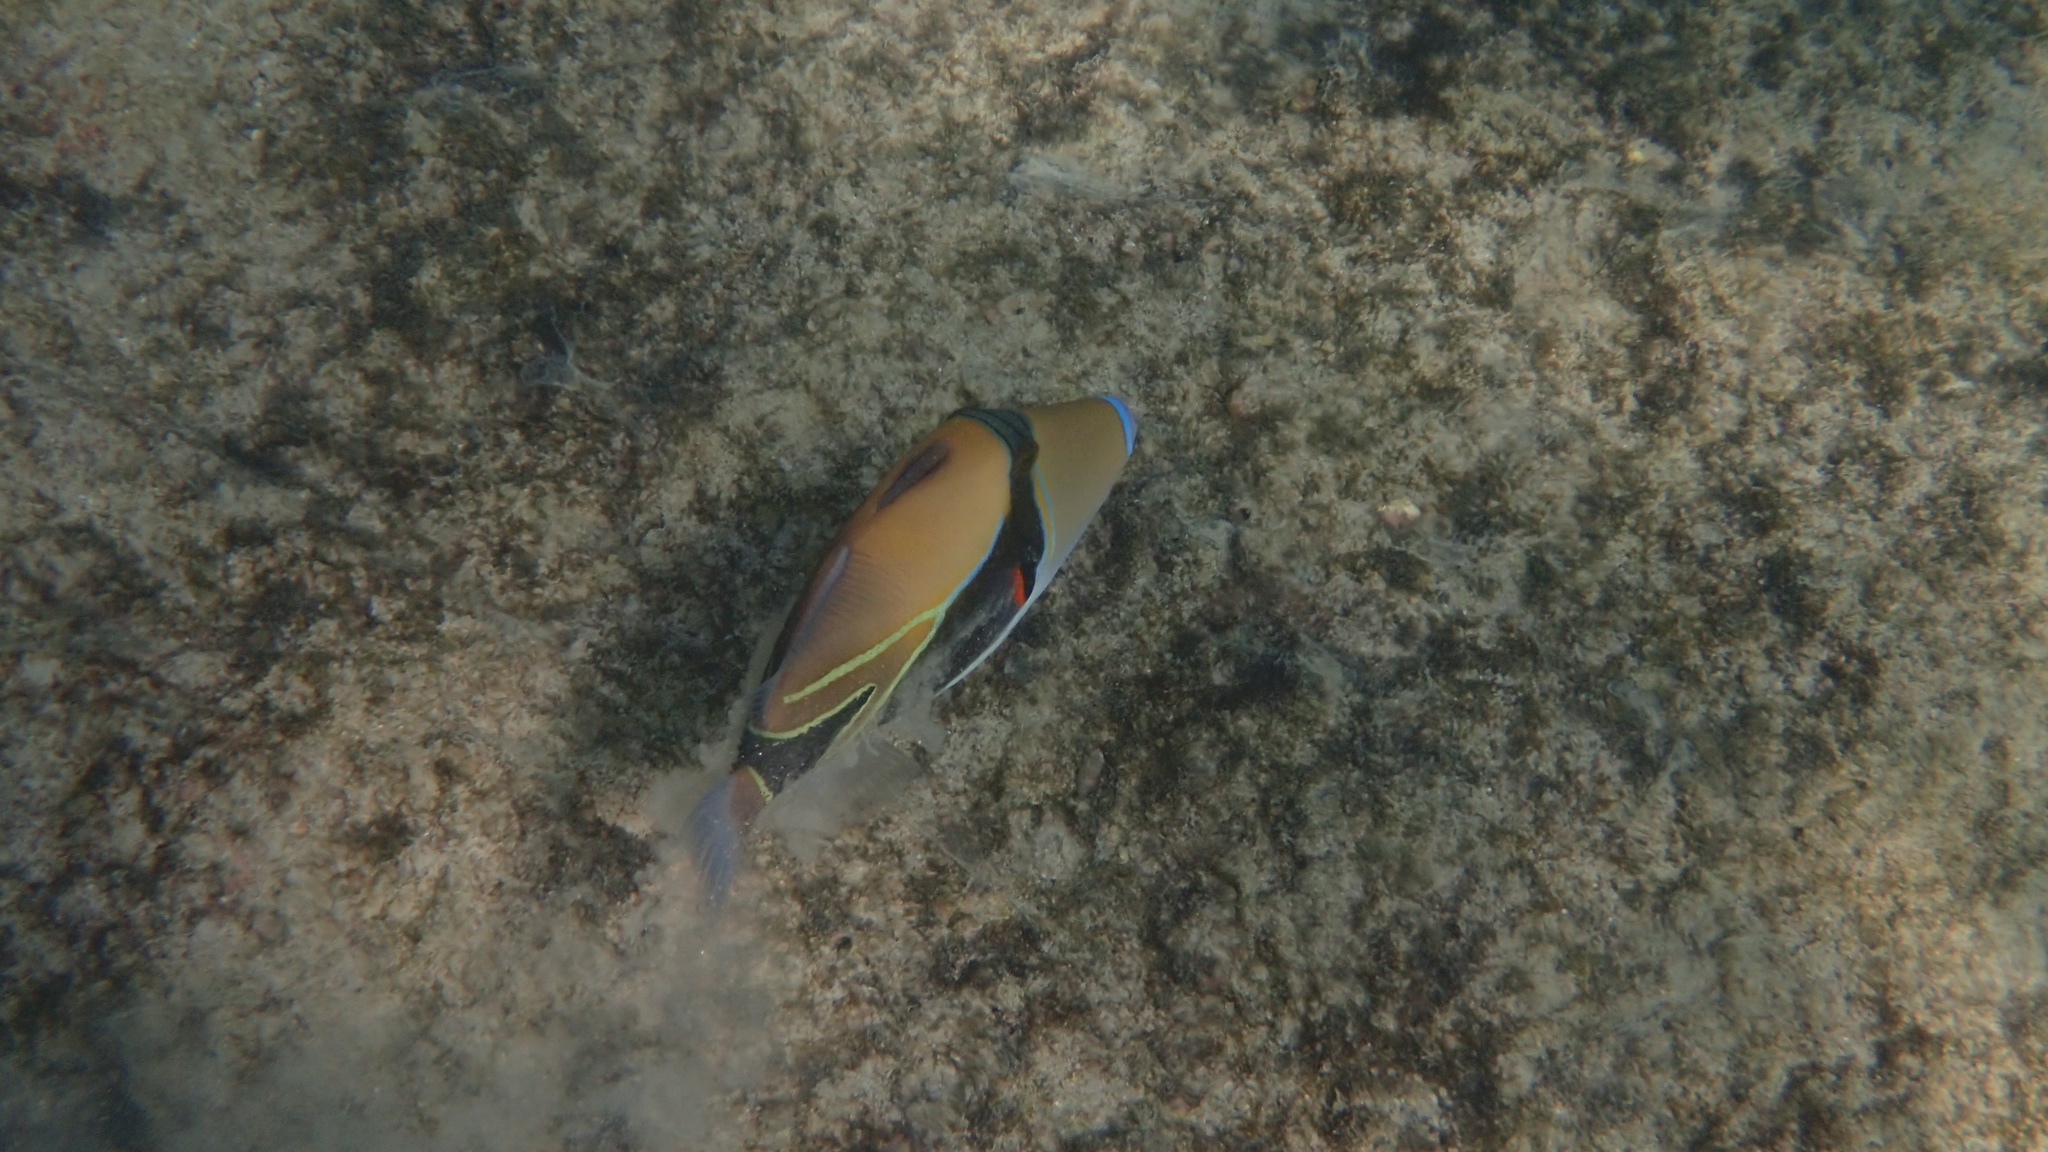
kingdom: Animalia
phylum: Chordata
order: Tetraodontiformes
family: Balistidae
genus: Rhinecanthus
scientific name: Rhinecanthus rectangulus
